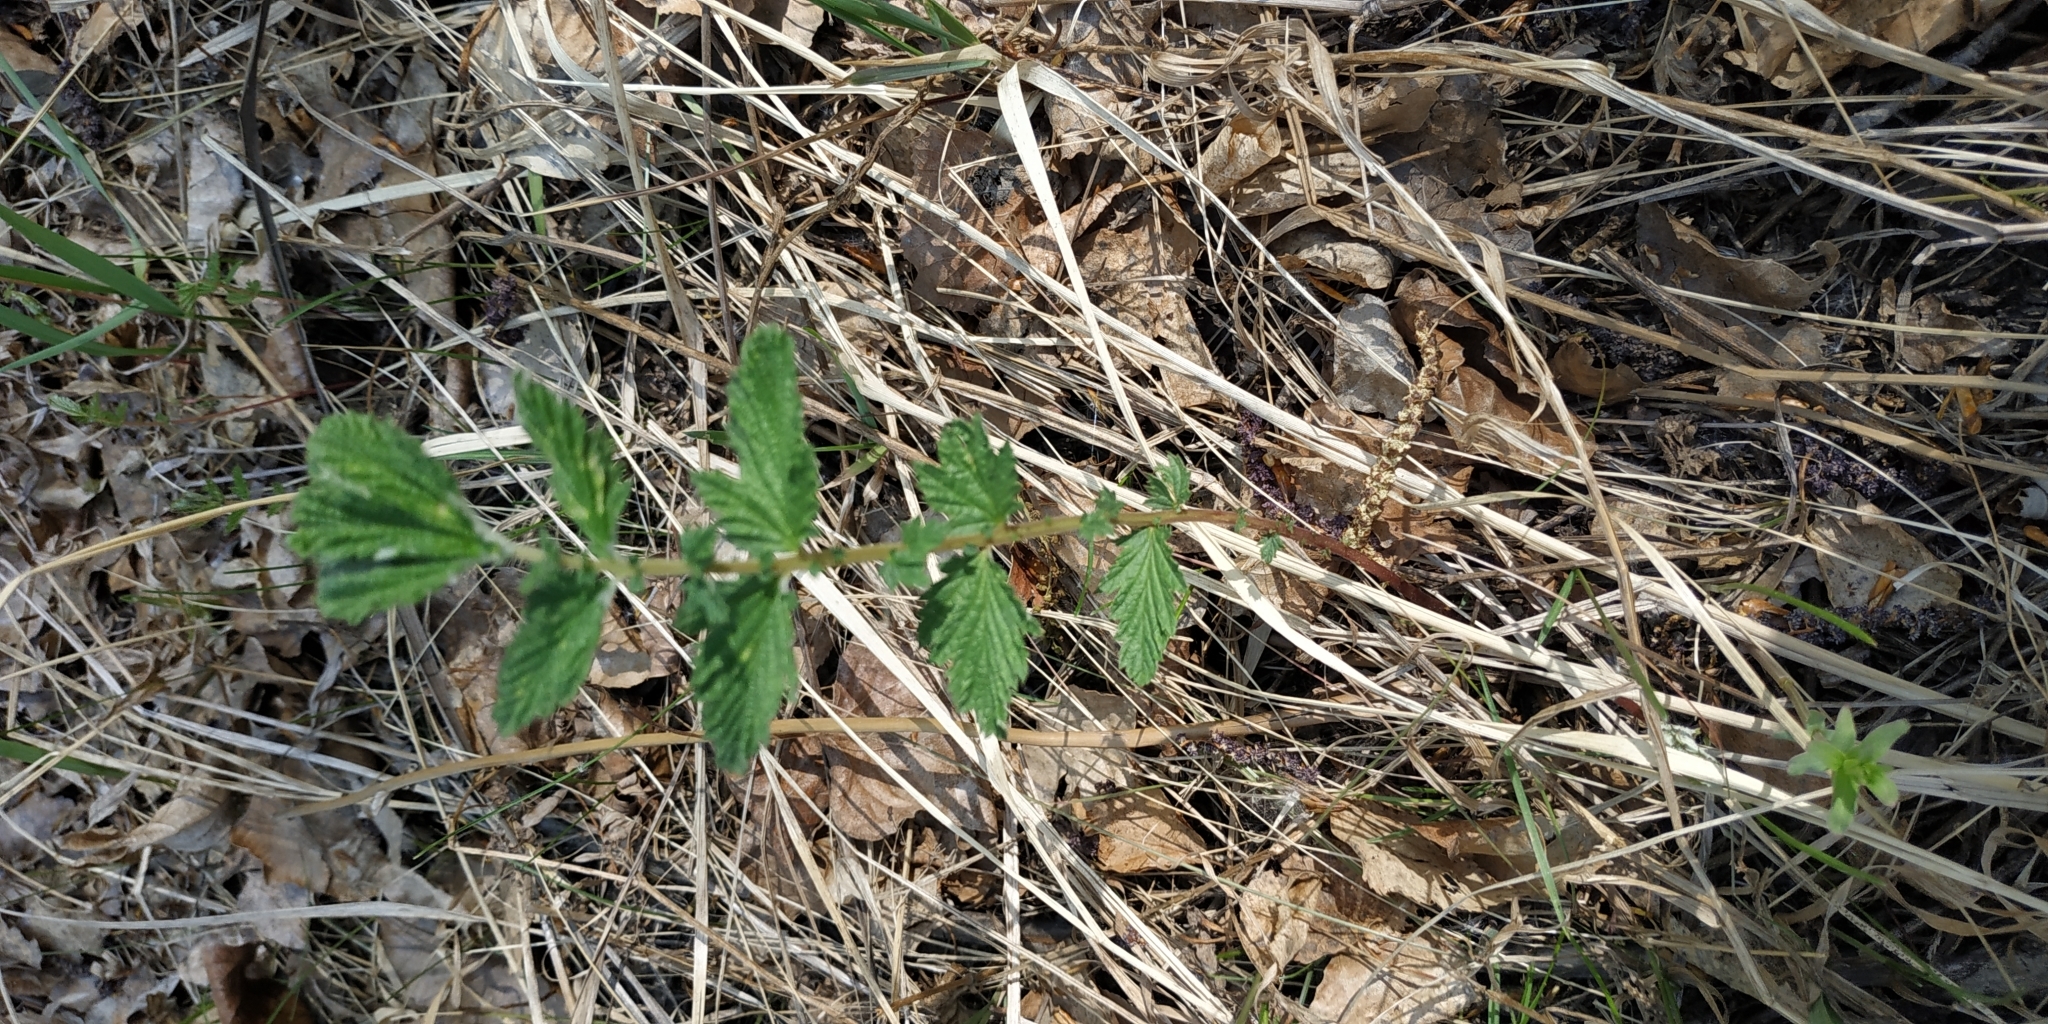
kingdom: Plantae
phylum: Tracheophyta
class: Magnoliopsida
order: Rosales
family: Rosaceae
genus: Filipendula
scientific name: Filipendula ulmaria
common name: Meadowsweet
